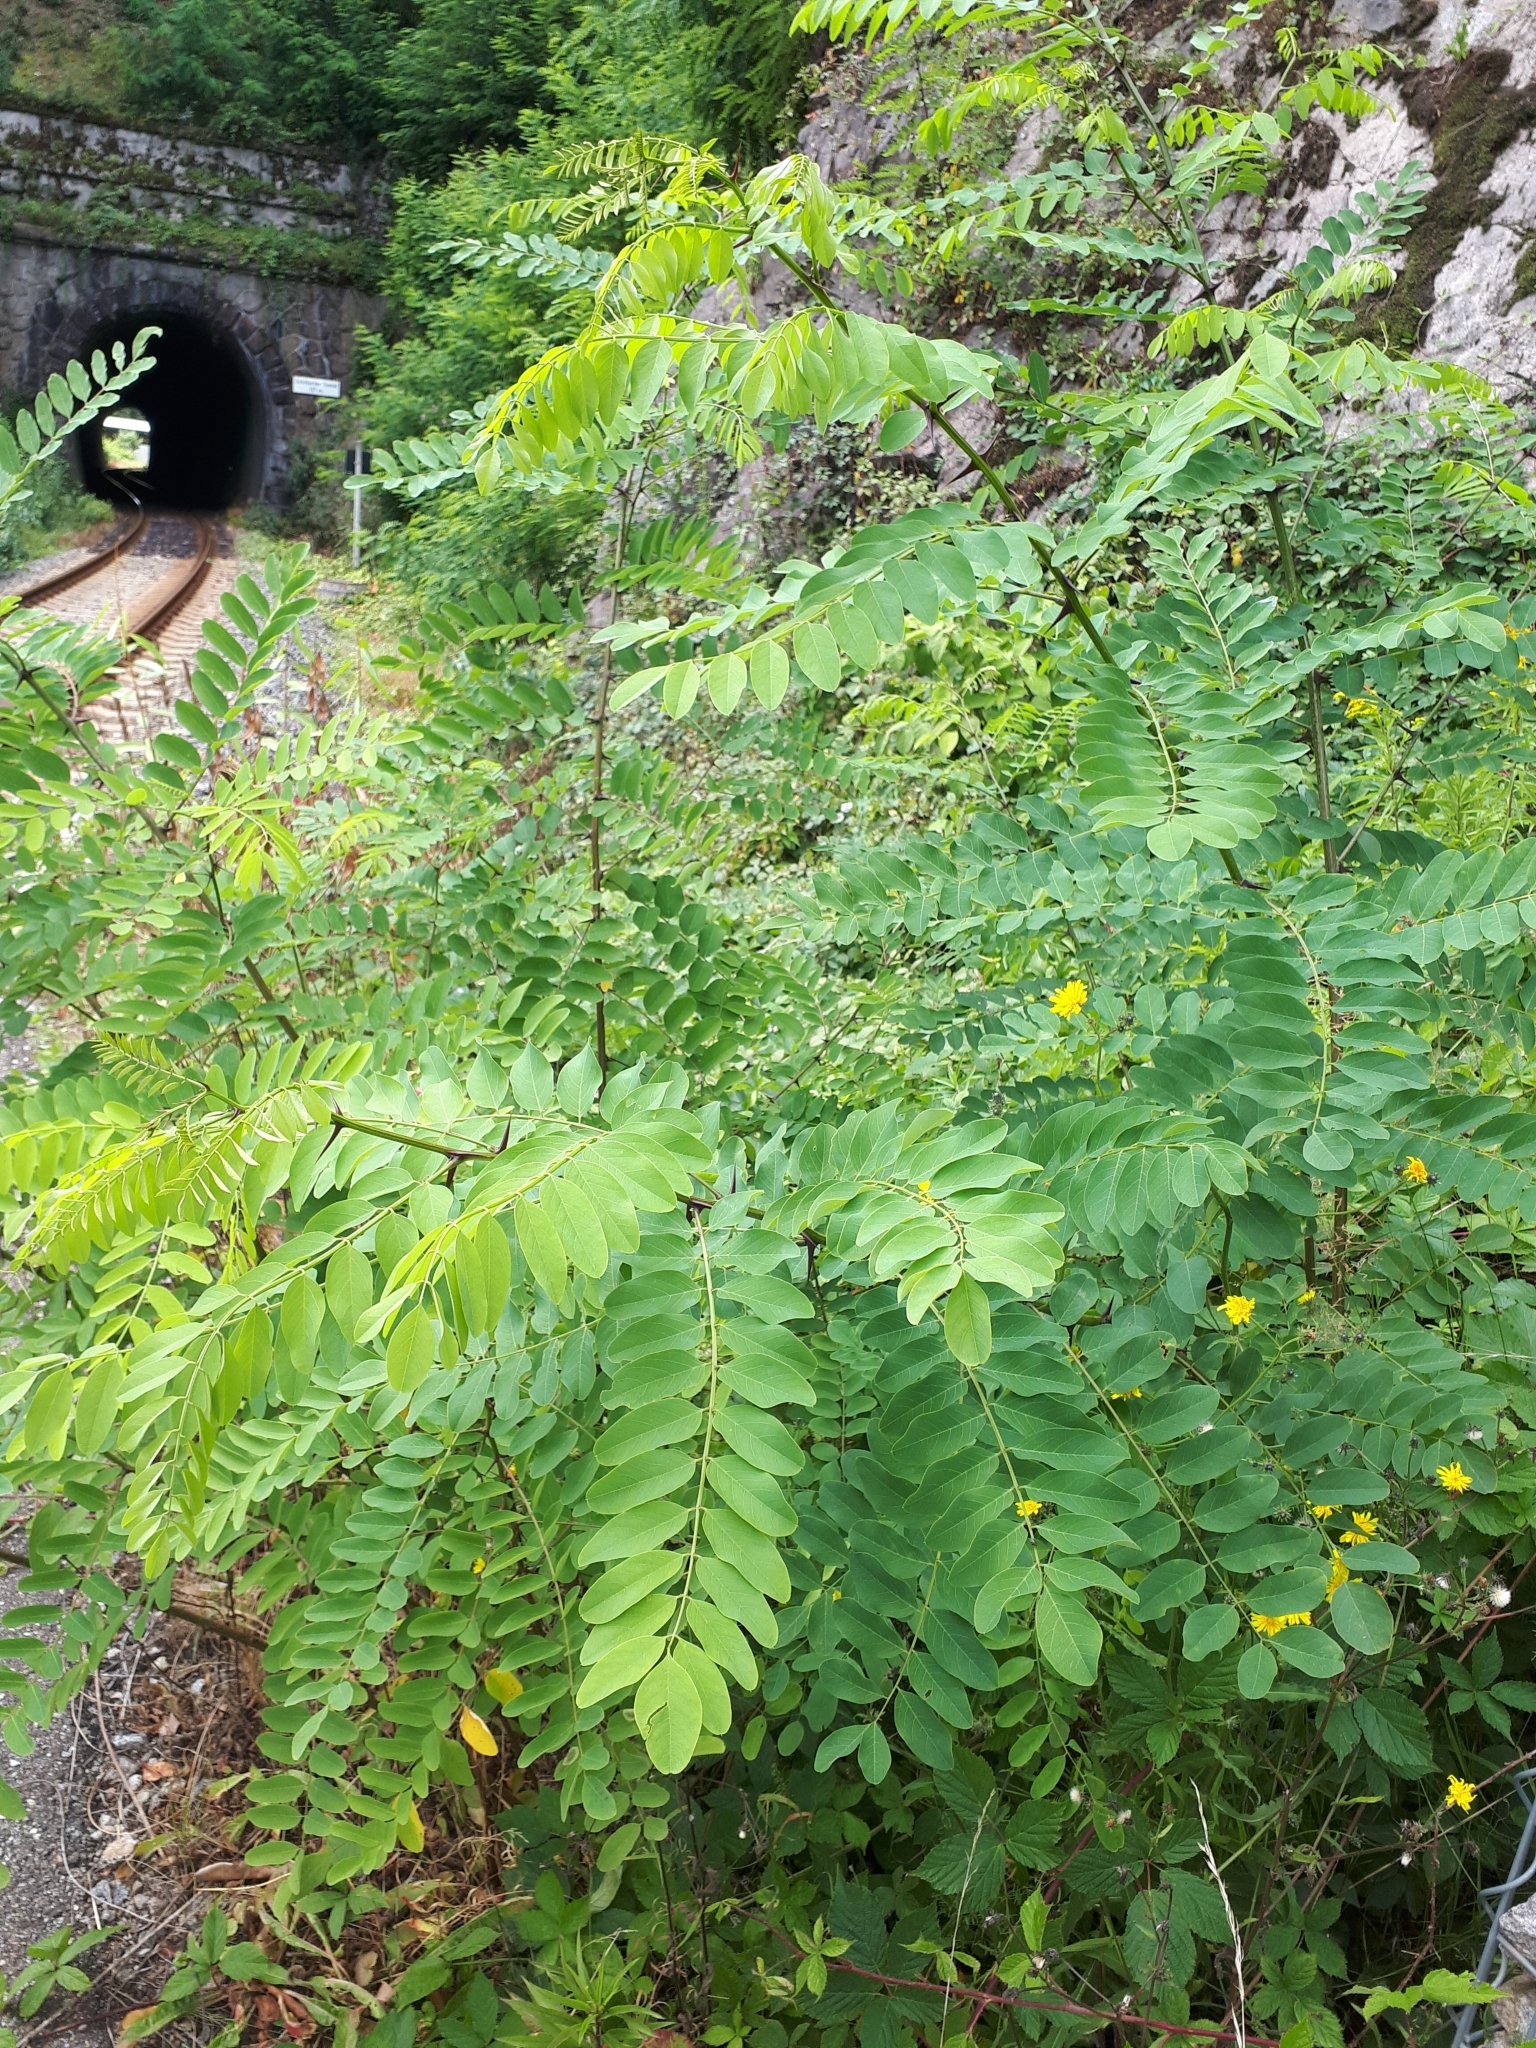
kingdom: Plantae
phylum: Tracheophyta
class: Magnoliopsida
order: Fabales
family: Fabaceae
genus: Robinia
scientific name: Robinia pseudoacacia
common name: Black locust
